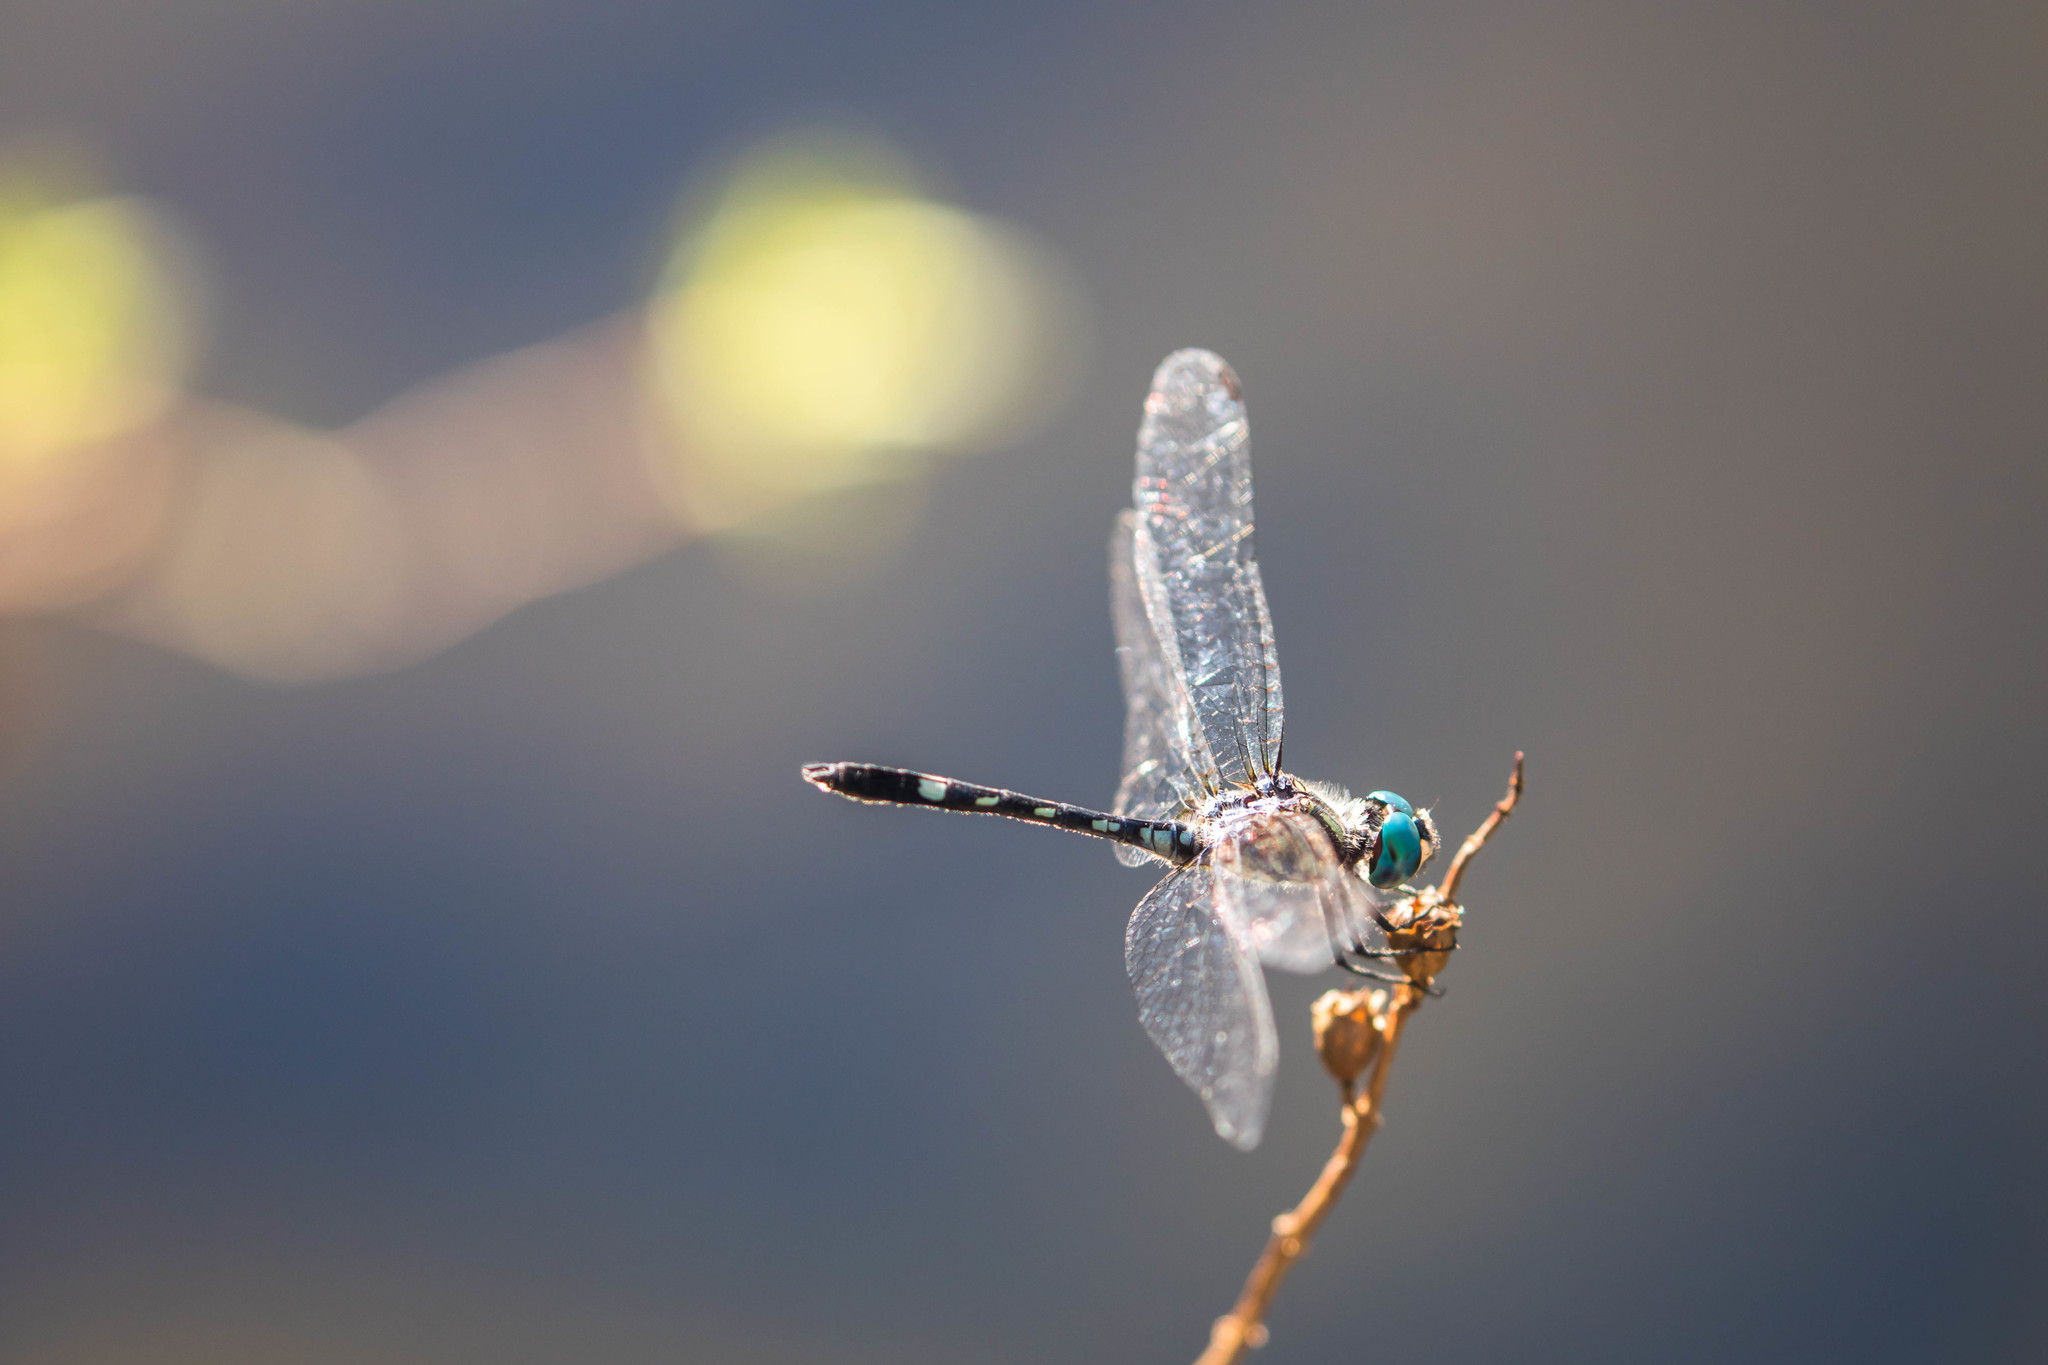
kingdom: Animalia
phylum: Arthropoda
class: Insecta
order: Odonata
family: Libellulidae
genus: Micrathyria
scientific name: Micrathyria hagenii
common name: Thornbush dasher
